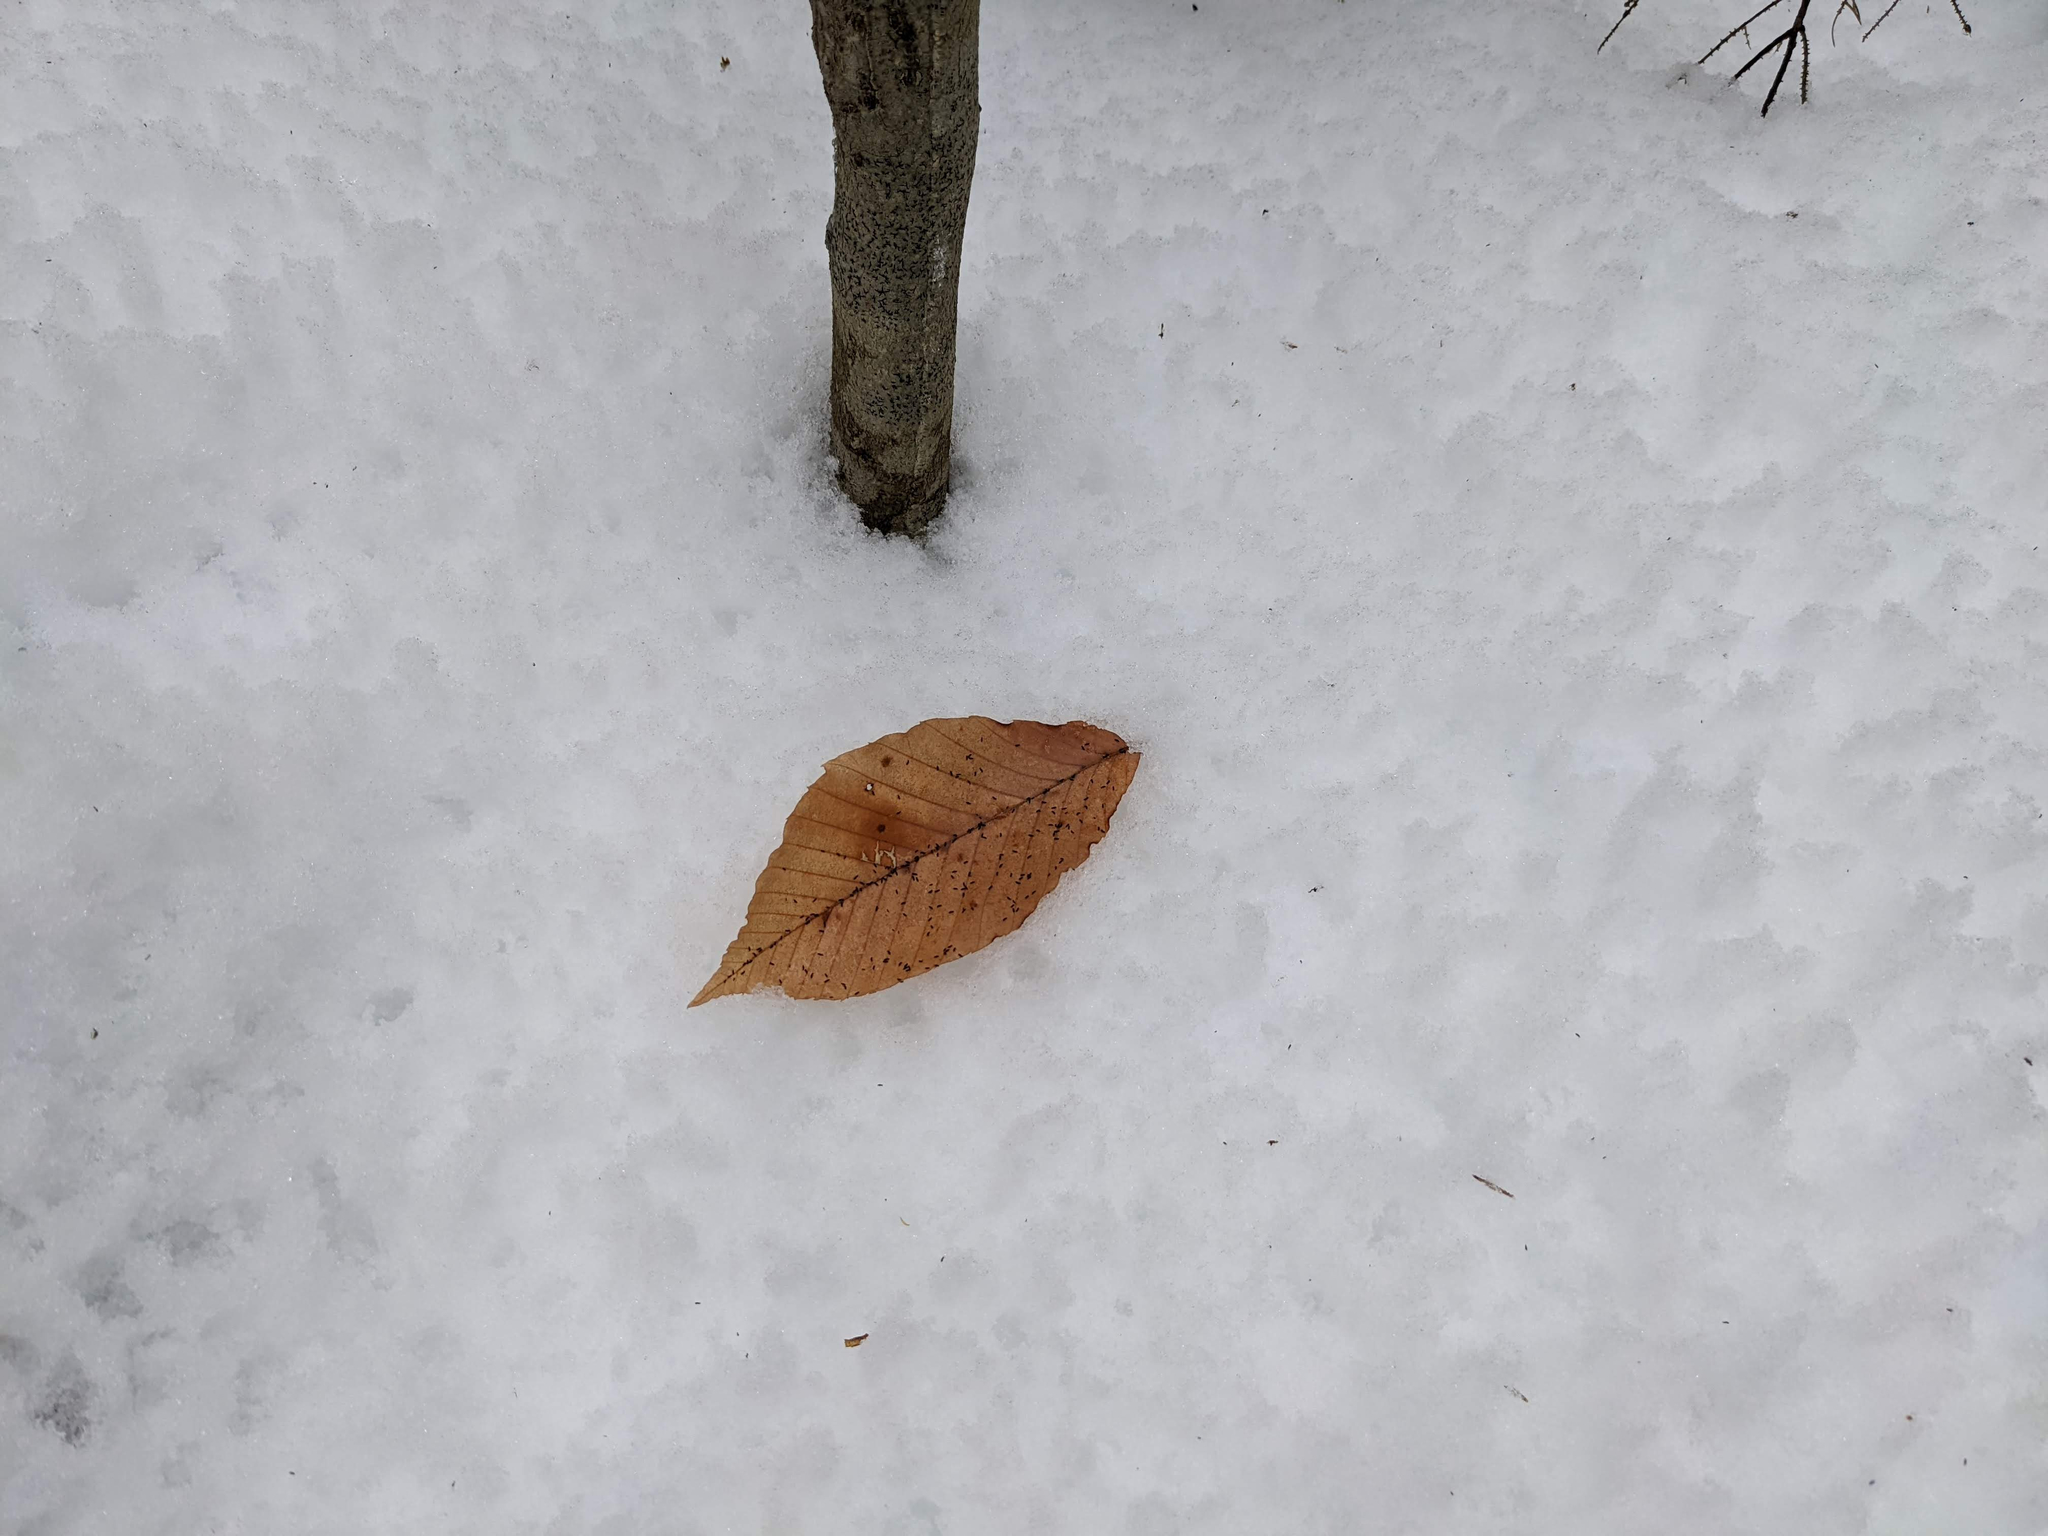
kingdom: Plantae
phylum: Tracheophyta
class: Magnoliopsida
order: Fagales
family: Fagaceae
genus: Fagus
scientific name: Fagus grandifolia
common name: American beech
